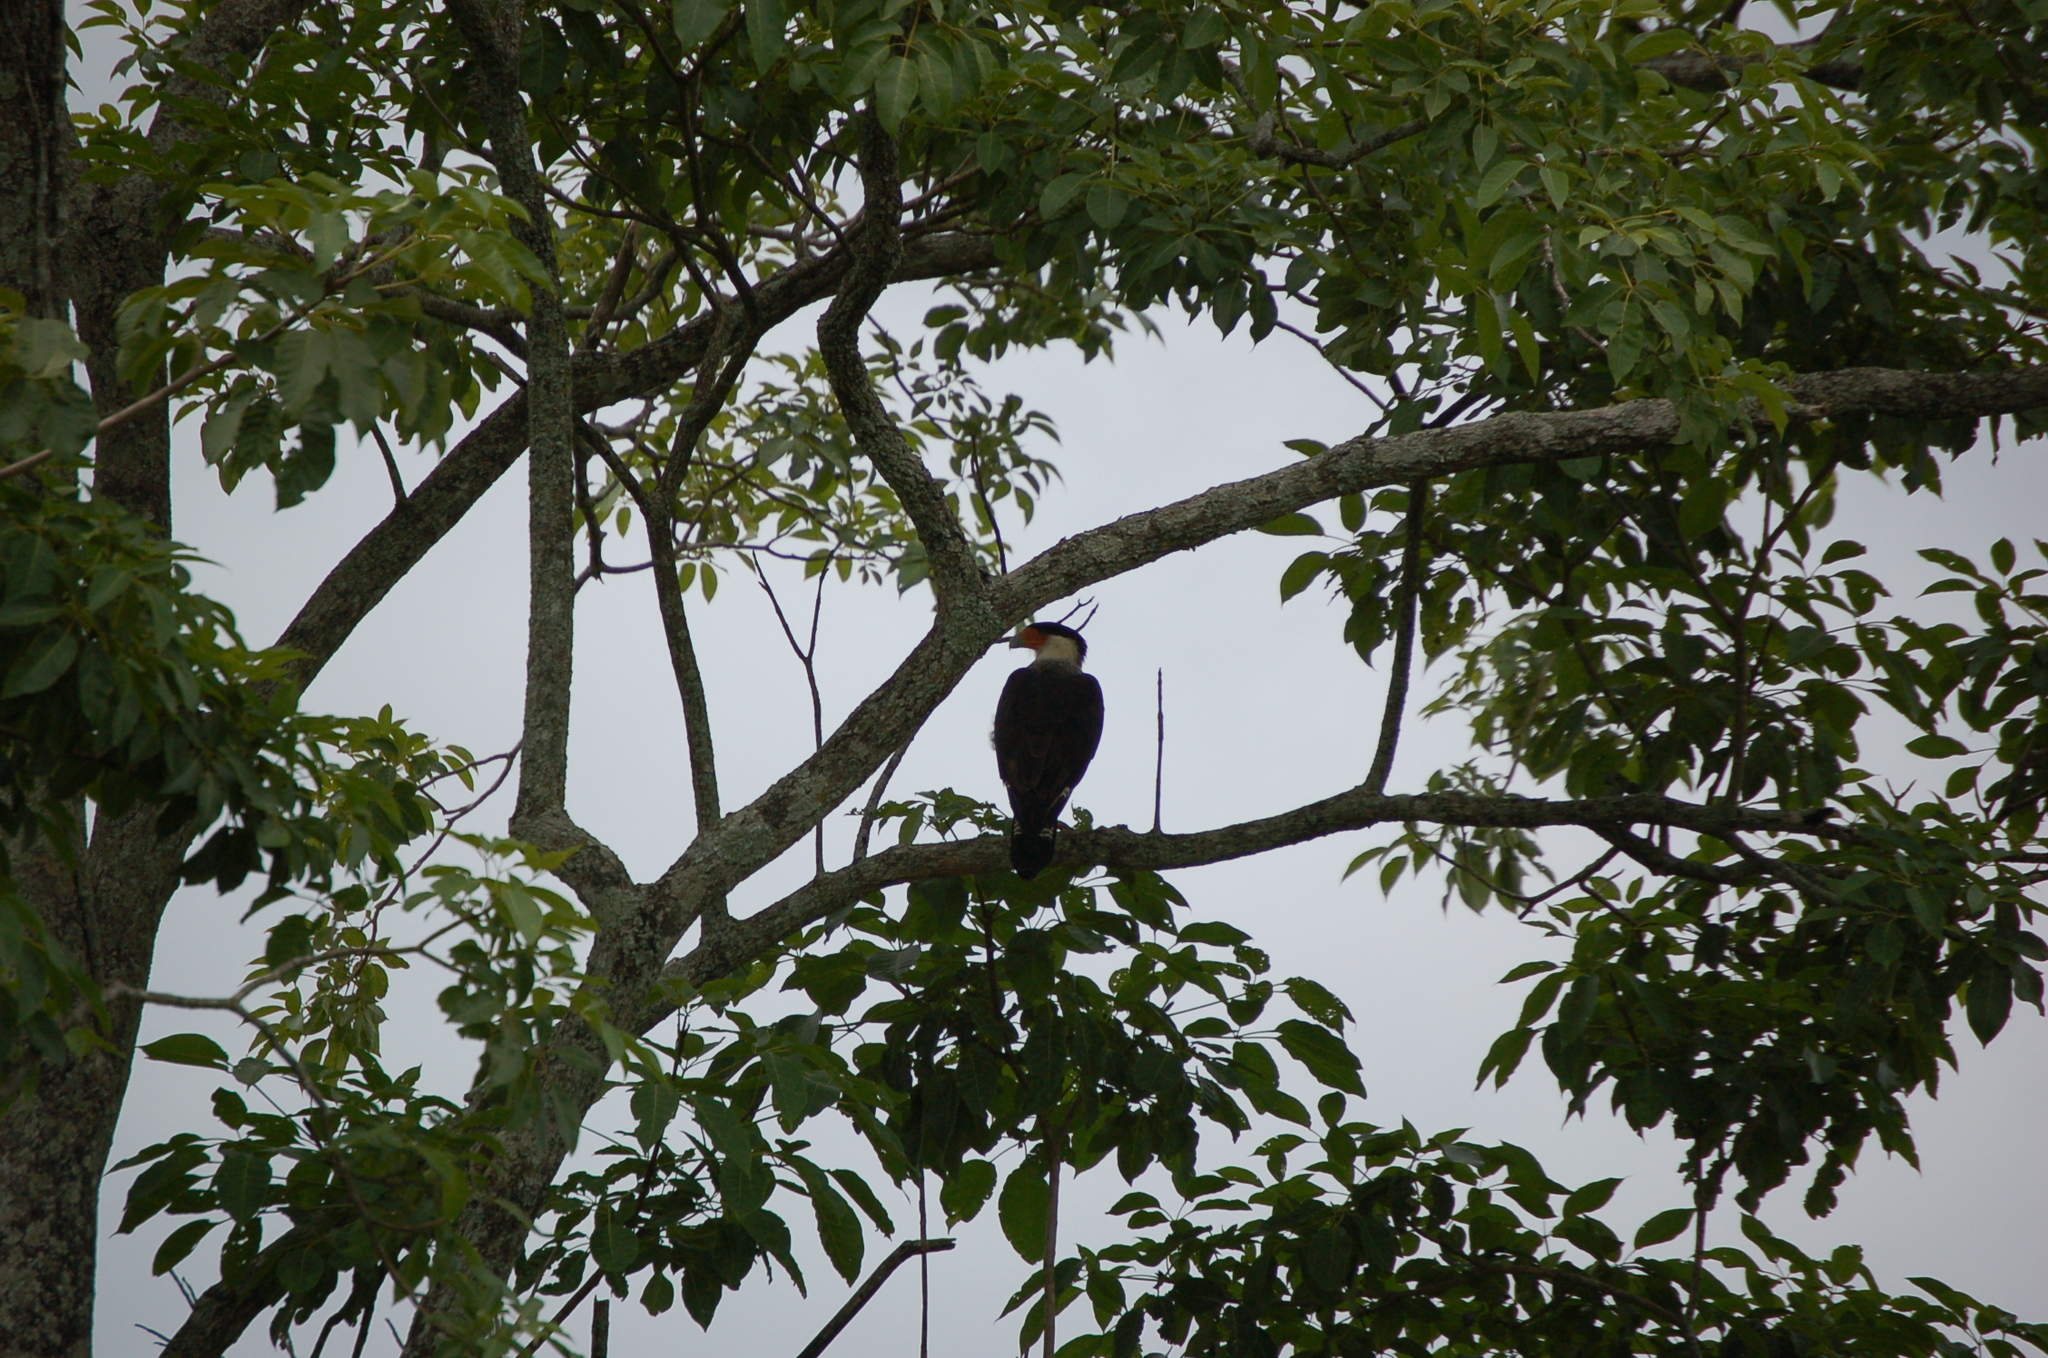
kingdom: Animalia
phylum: Chordata
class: Aves
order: Falconiformes
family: Falconidae
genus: Caracara
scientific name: Caracara plancus
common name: Southern caracara
